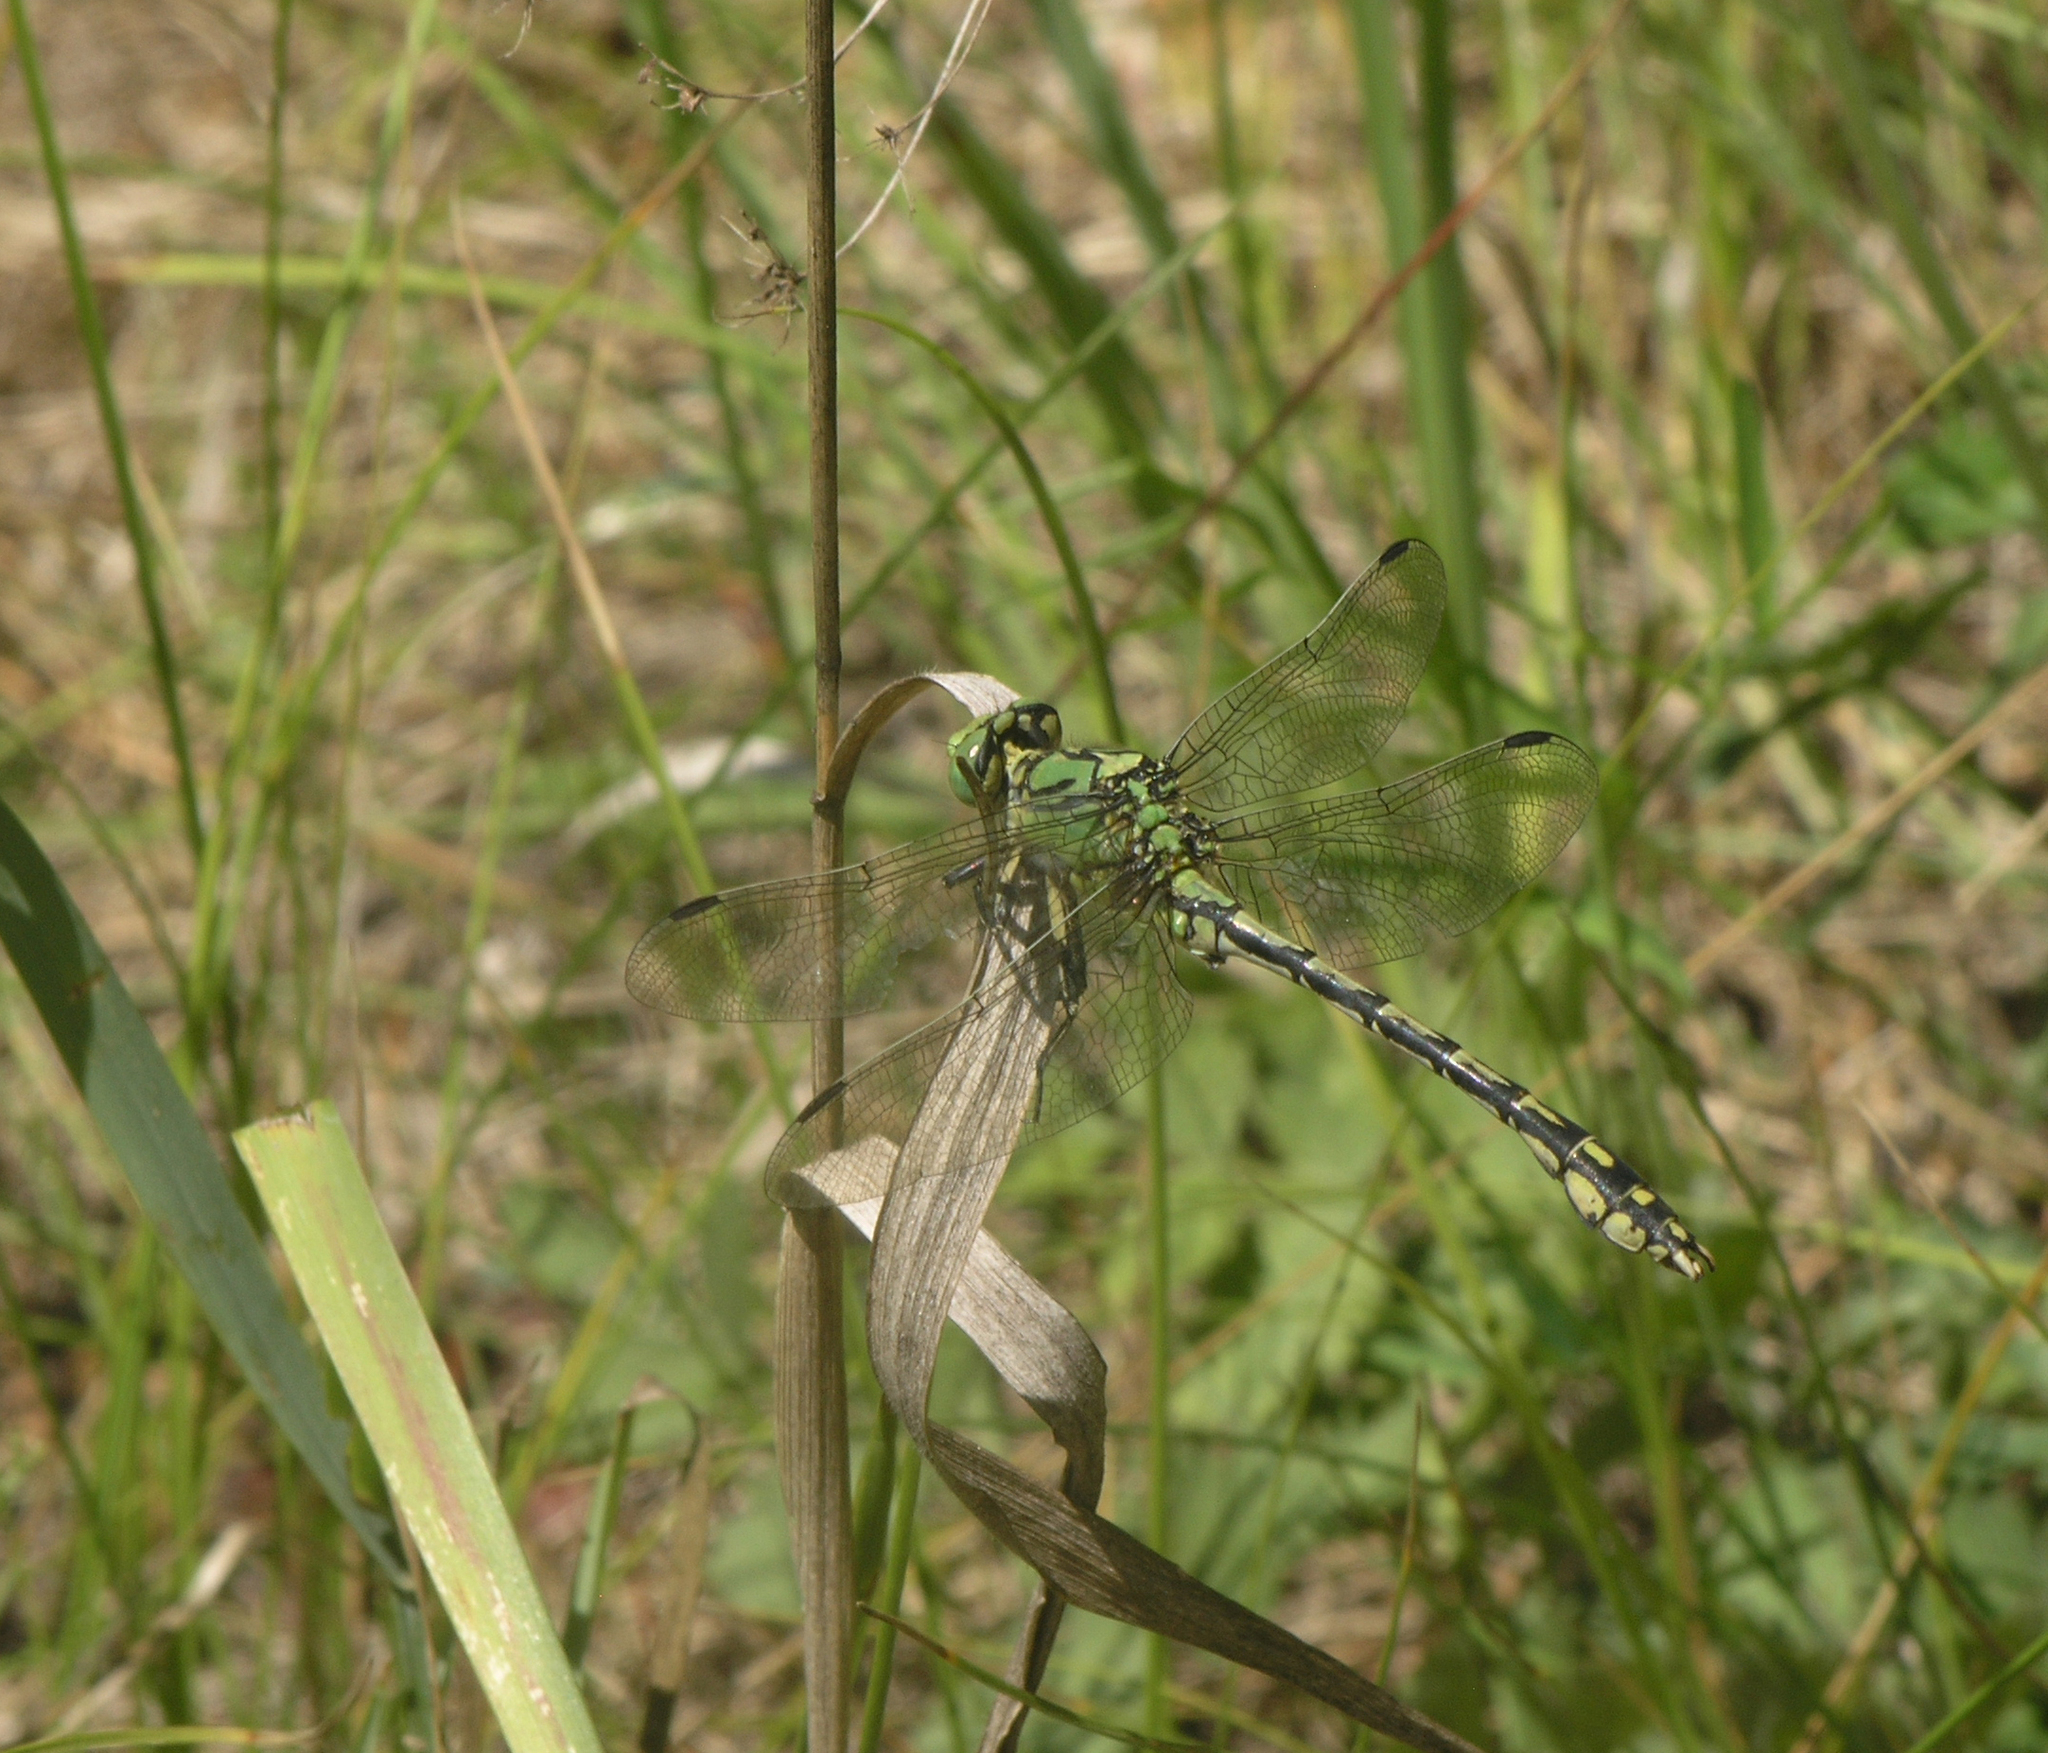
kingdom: Animalia
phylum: Arthropoda
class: Insecta
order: Odonata
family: Gomphidae
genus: Ophiogomphus
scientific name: Ophiogomphus cecilia
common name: Green snaketail
